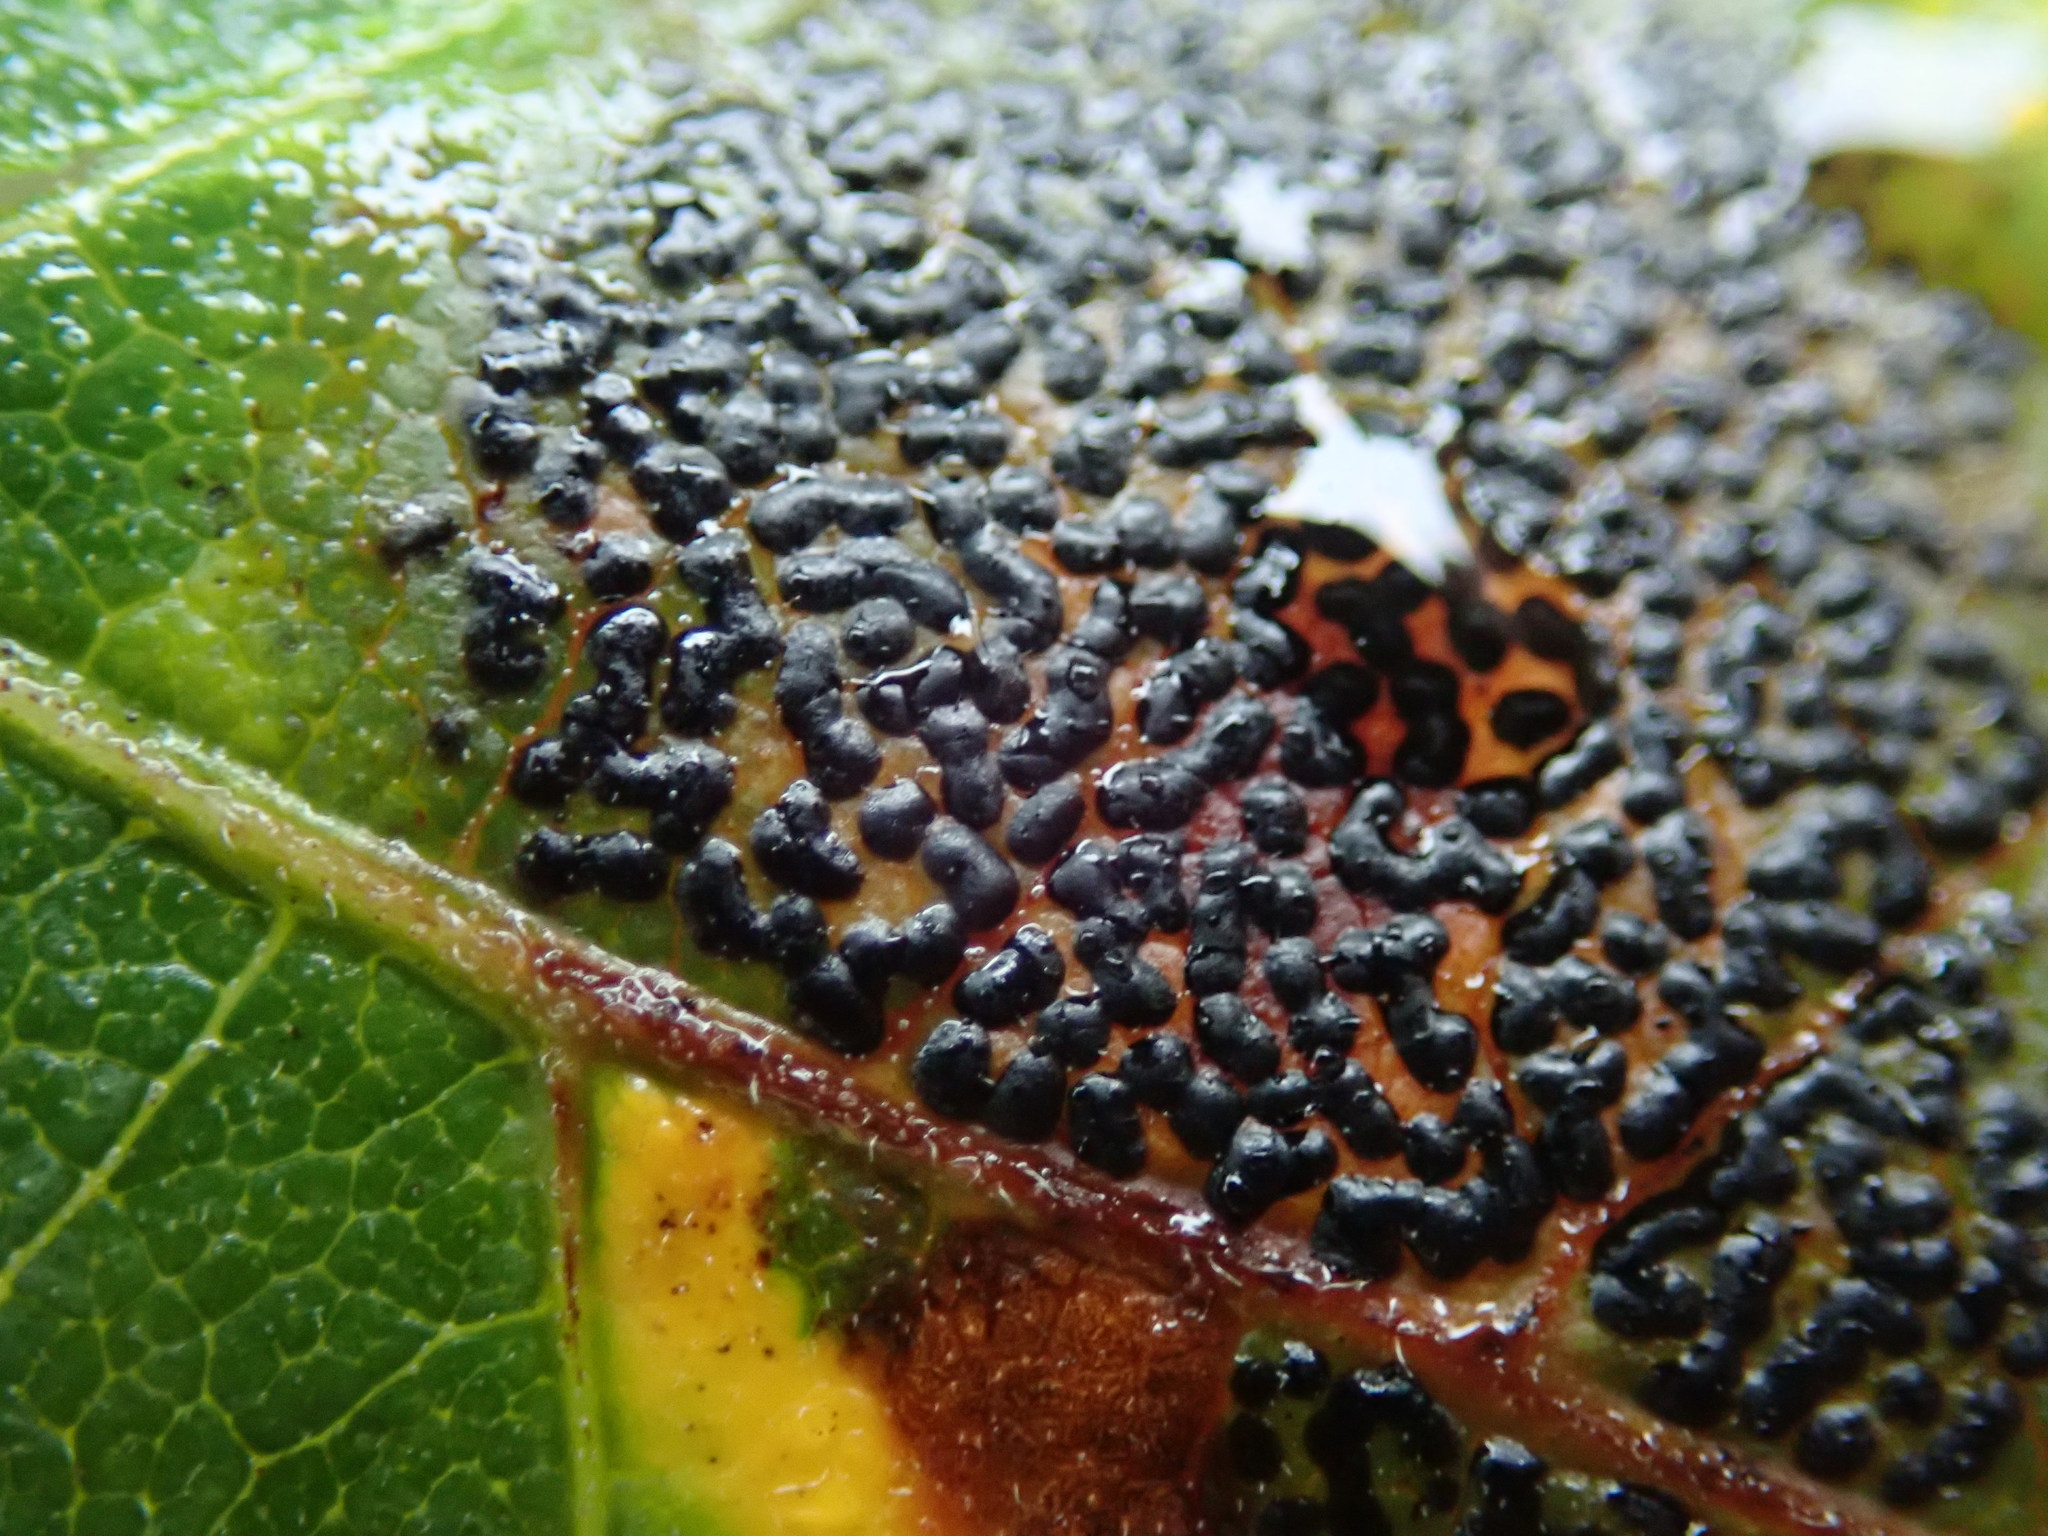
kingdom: Fungi
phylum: Ascomycota
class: Leotiomycetes
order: Rhytismatales
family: Rhytismataceae
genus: Rhytisma
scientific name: Rhytisma punctatum
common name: Speckled tar spot
